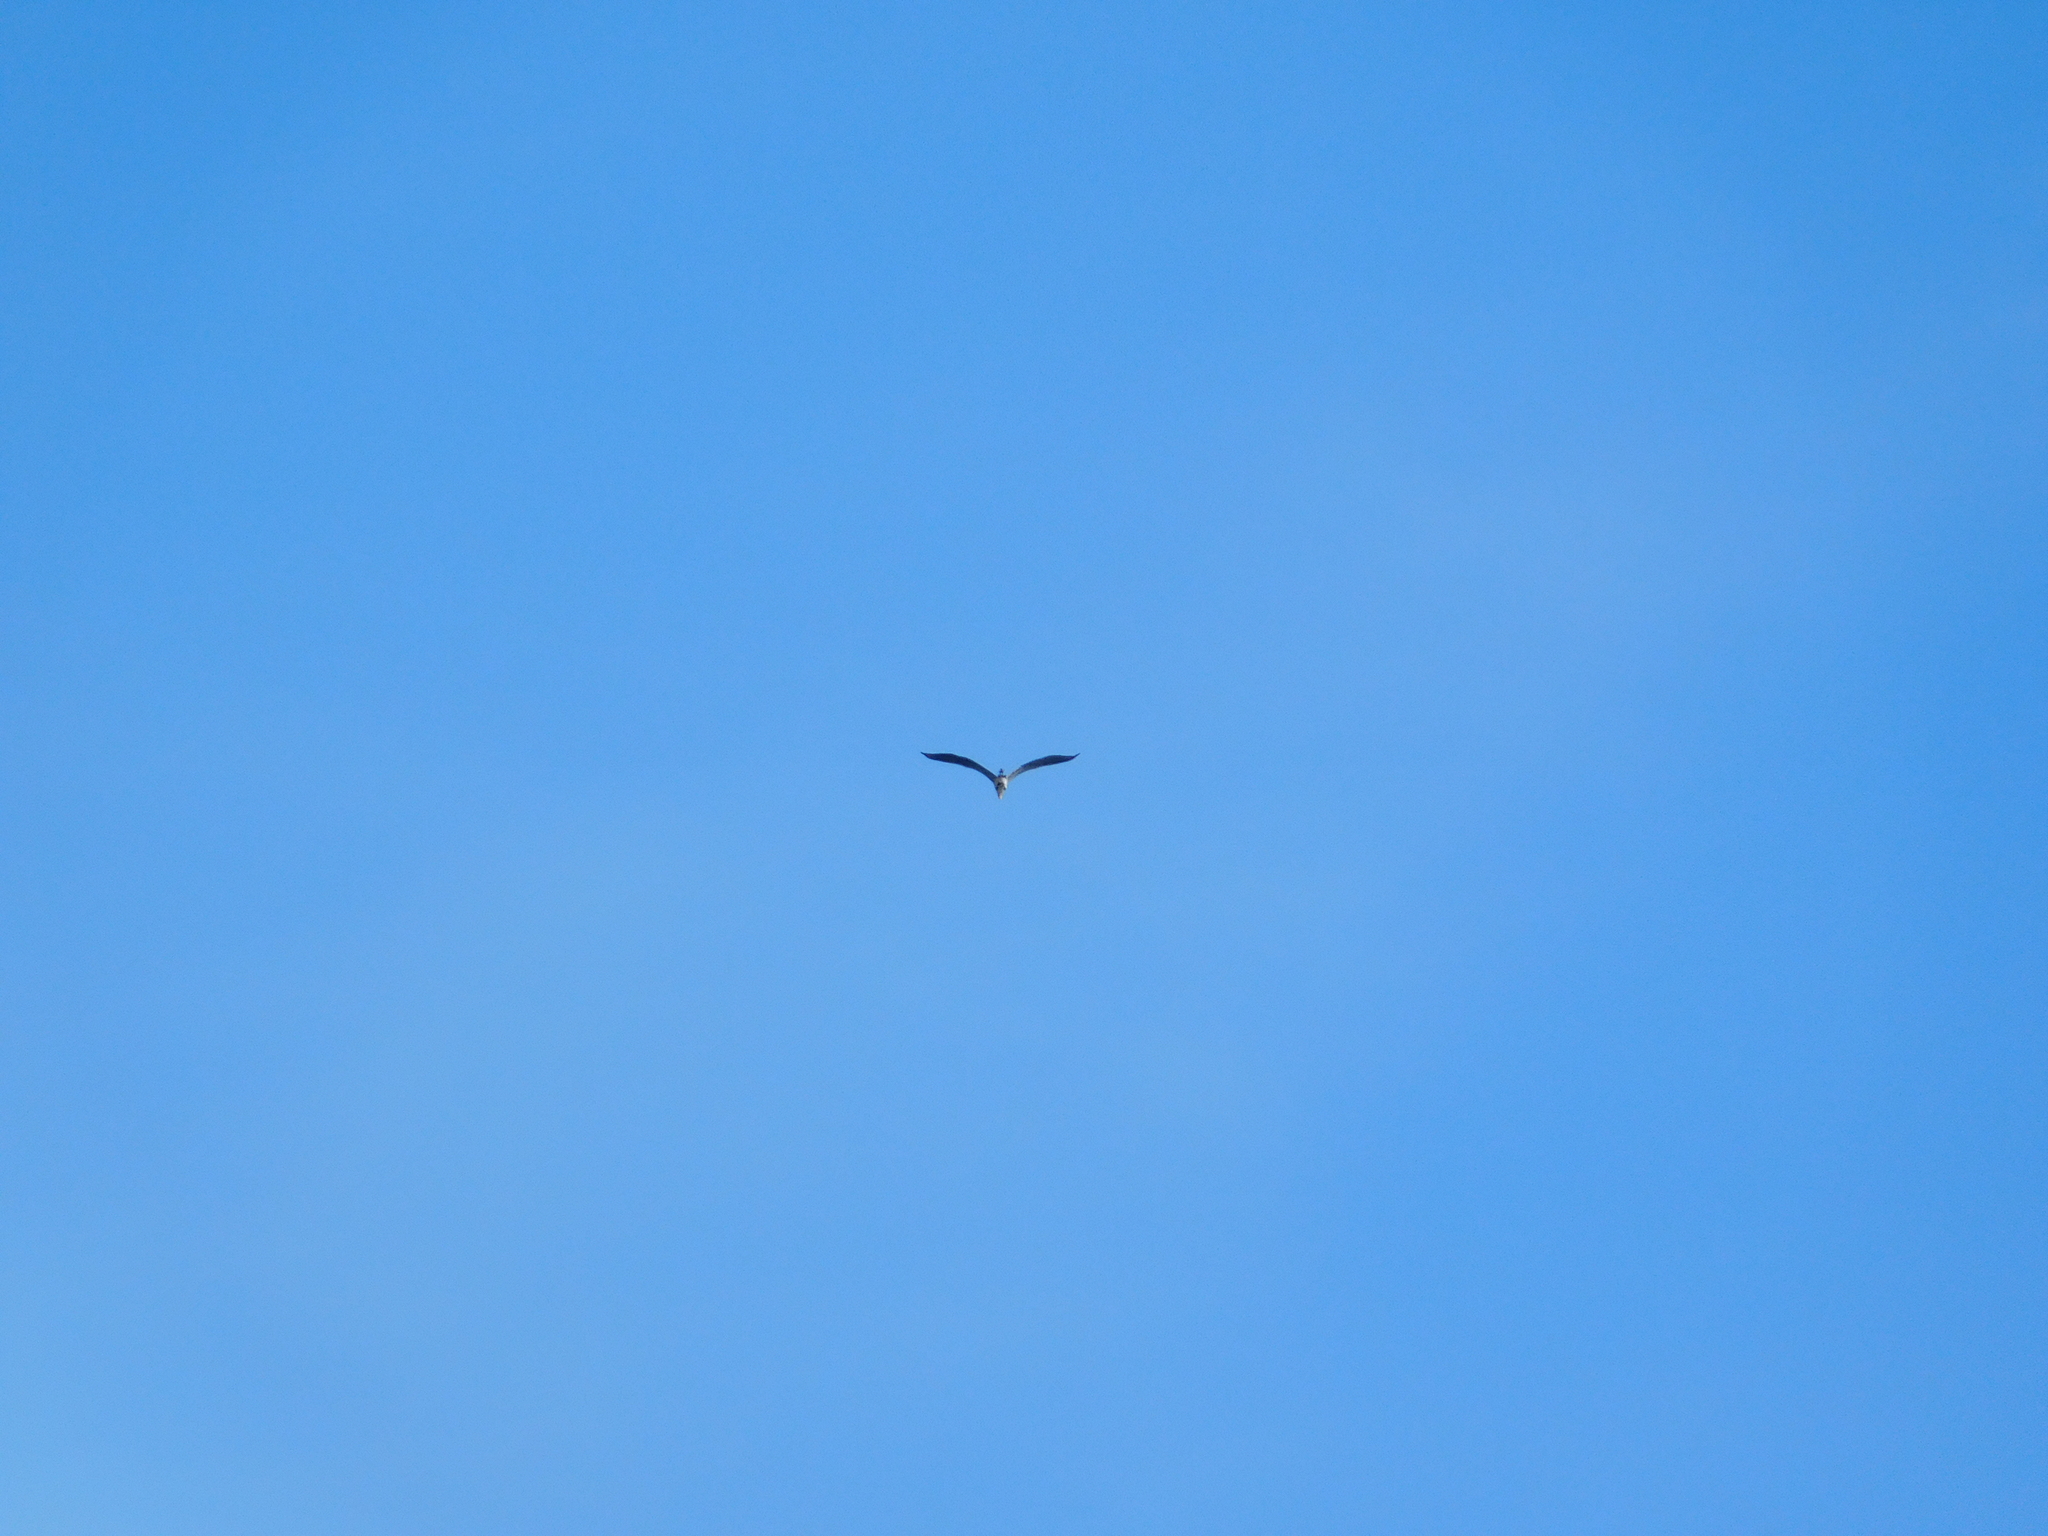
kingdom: Animalia
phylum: Chordata
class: Aves
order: Pelecaniformes
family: Ardeidae
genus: Ardea
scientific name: Ardea cinerea
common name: Grey heron
